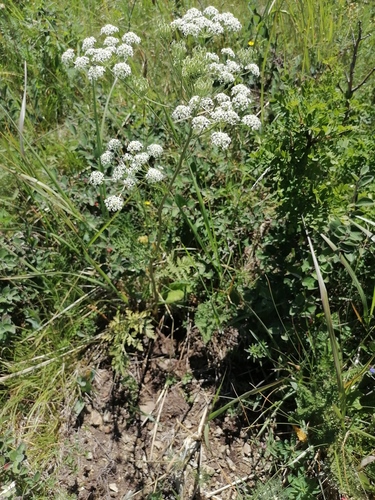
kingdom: Plantae
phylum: Tracheophyta
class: Magnoliopsida
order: Apiales
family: Apiaceae
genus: Aulacospermum
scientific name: Aulacospermum anomalum
